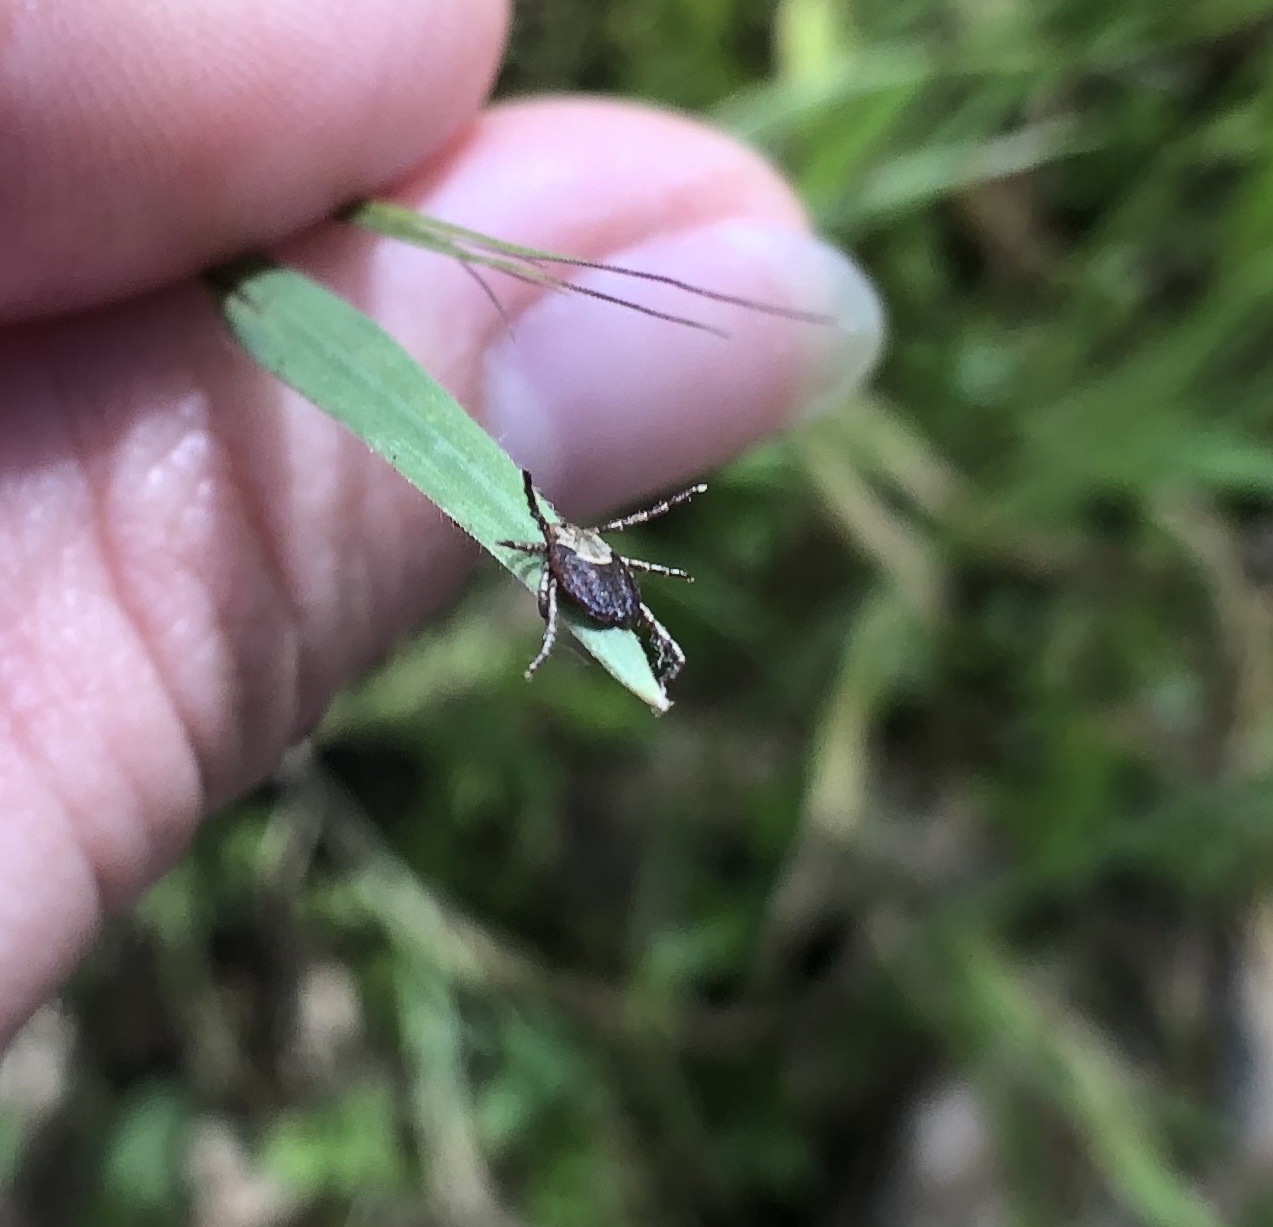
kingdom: Animalia
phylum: Arthropoda
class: Arachnida
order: Ixodida
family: Ixodidae
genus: Dermacentor
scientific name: Dermacentor occidentalis
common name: Net tick
